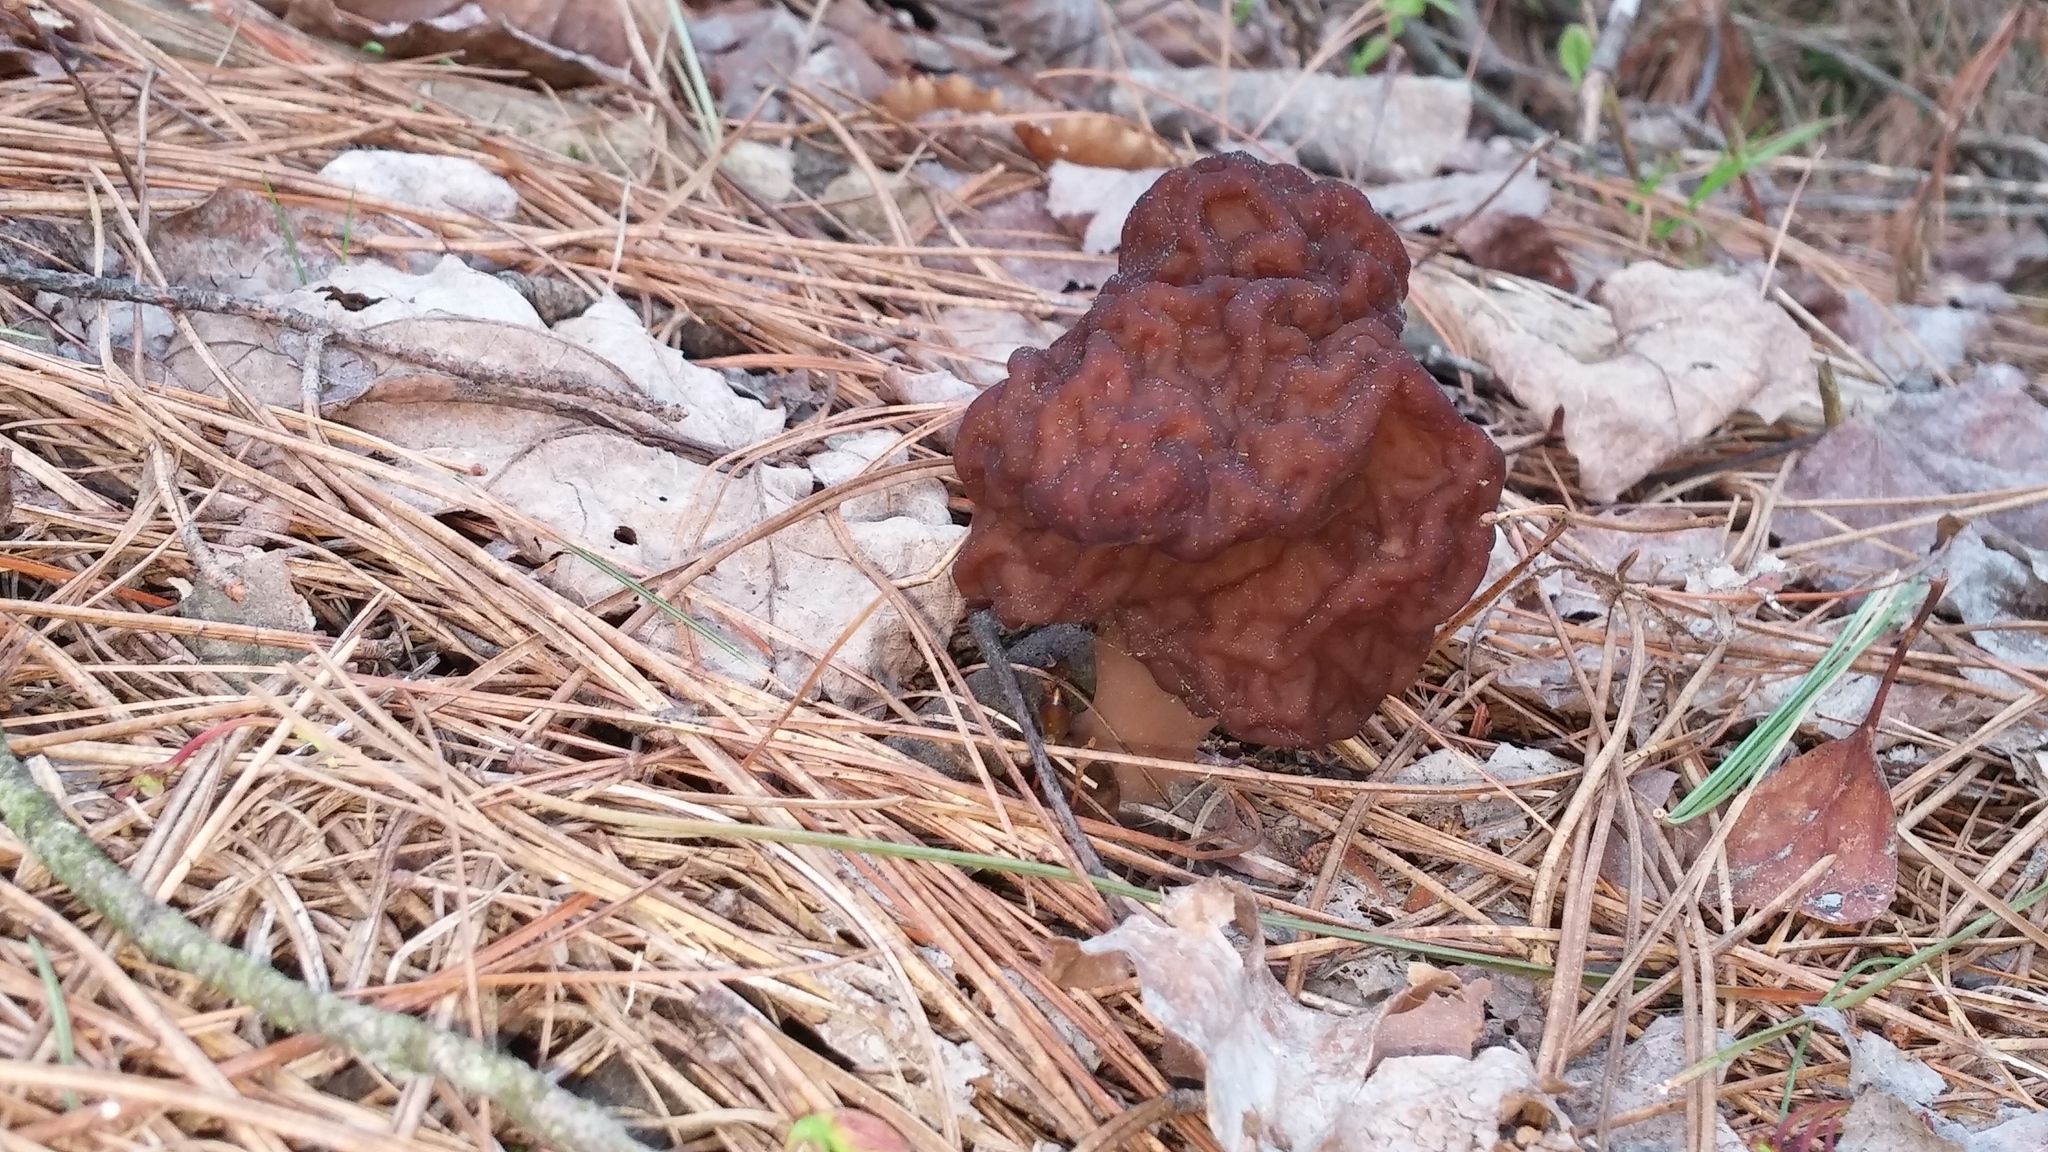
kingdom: Fungi
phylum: Ascomycota
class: Pezizomycetes
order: Pezizales
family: Discinaceae
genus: Gyromitra
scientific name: Gyromitra esculenta
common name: False morel
